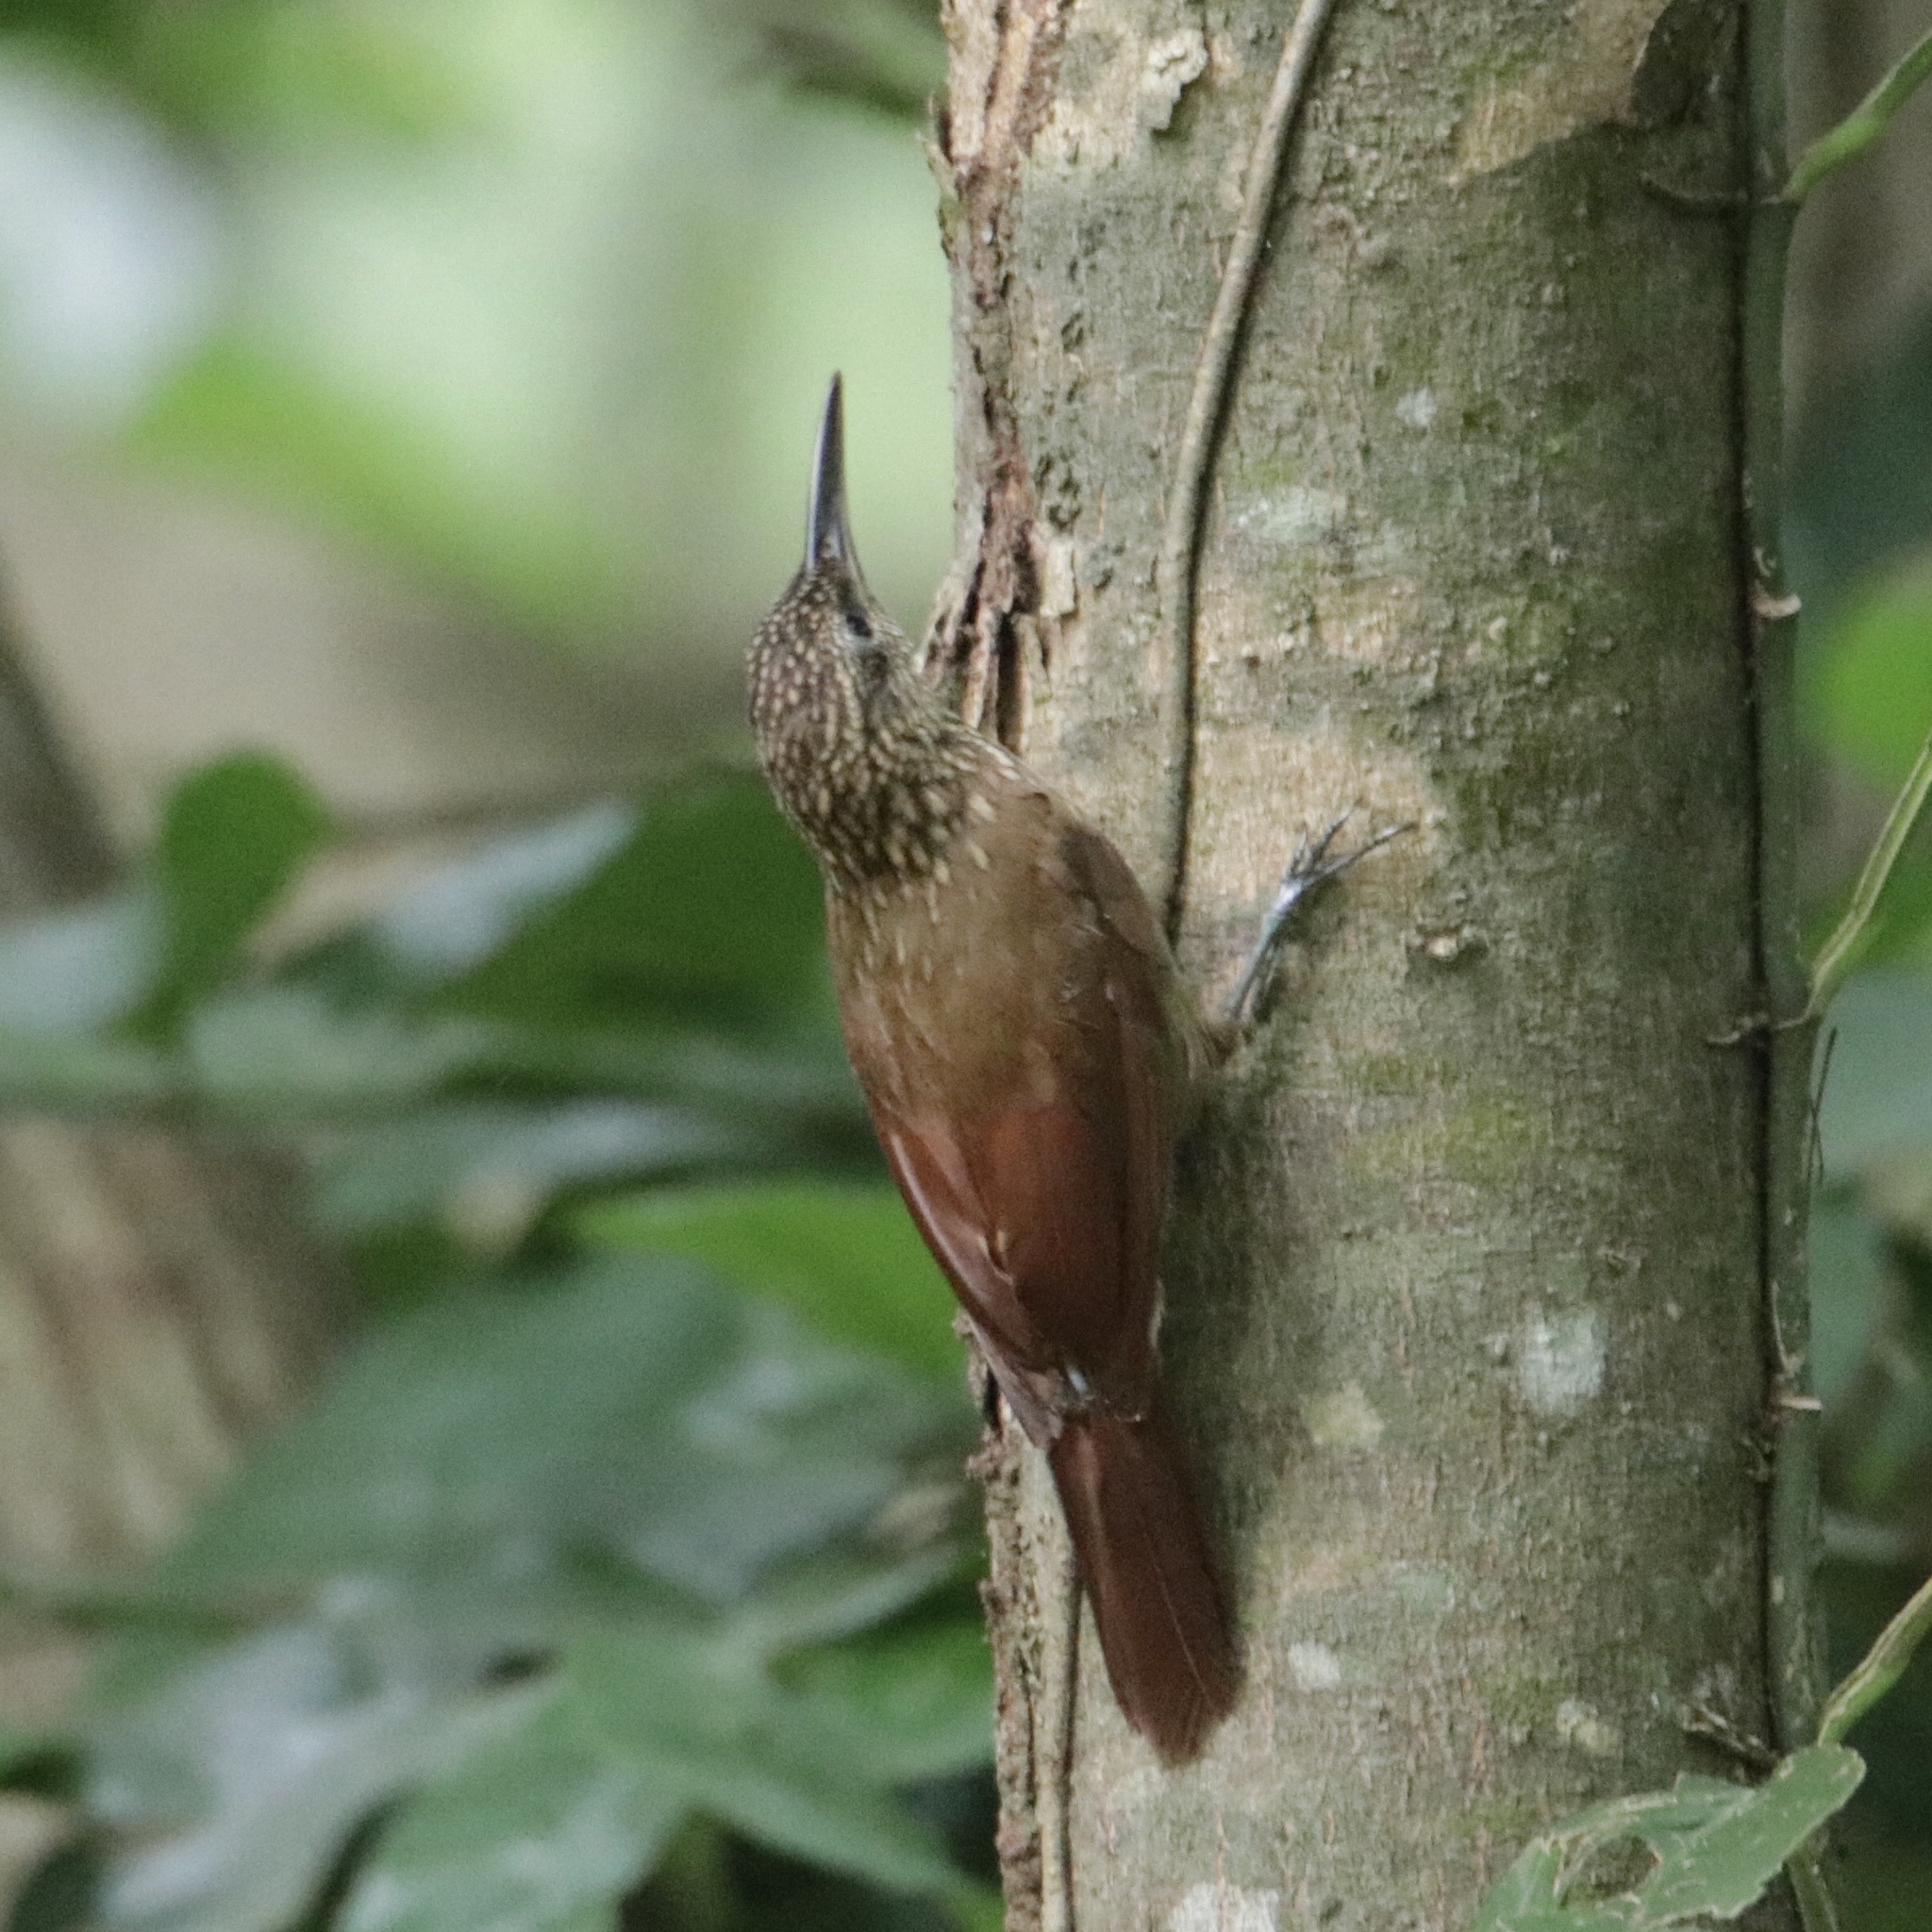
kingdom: Animalia
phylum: Chordata
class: Aves
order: Passeriformes
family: Furnariidae
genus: Xiphorhynchus
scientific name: Xiphorhynchus susurrans
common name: Cocoa woodcreeper
